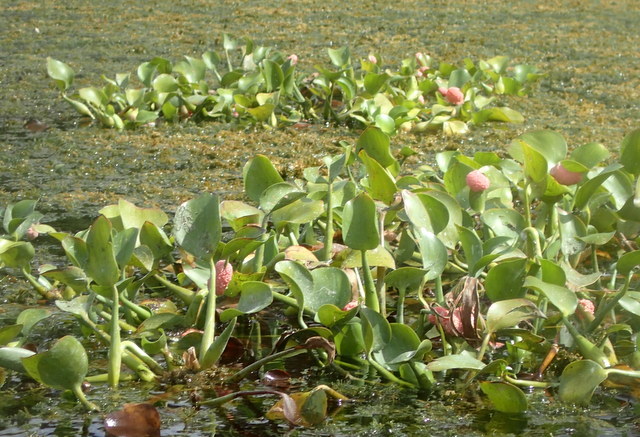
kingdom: Animalia
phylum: Mollusca
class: Gastropoda
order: Architaenioglossa
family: Ampullariidae
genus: Pomacea
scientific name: Pomacea maculata
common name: Giant applesnail
